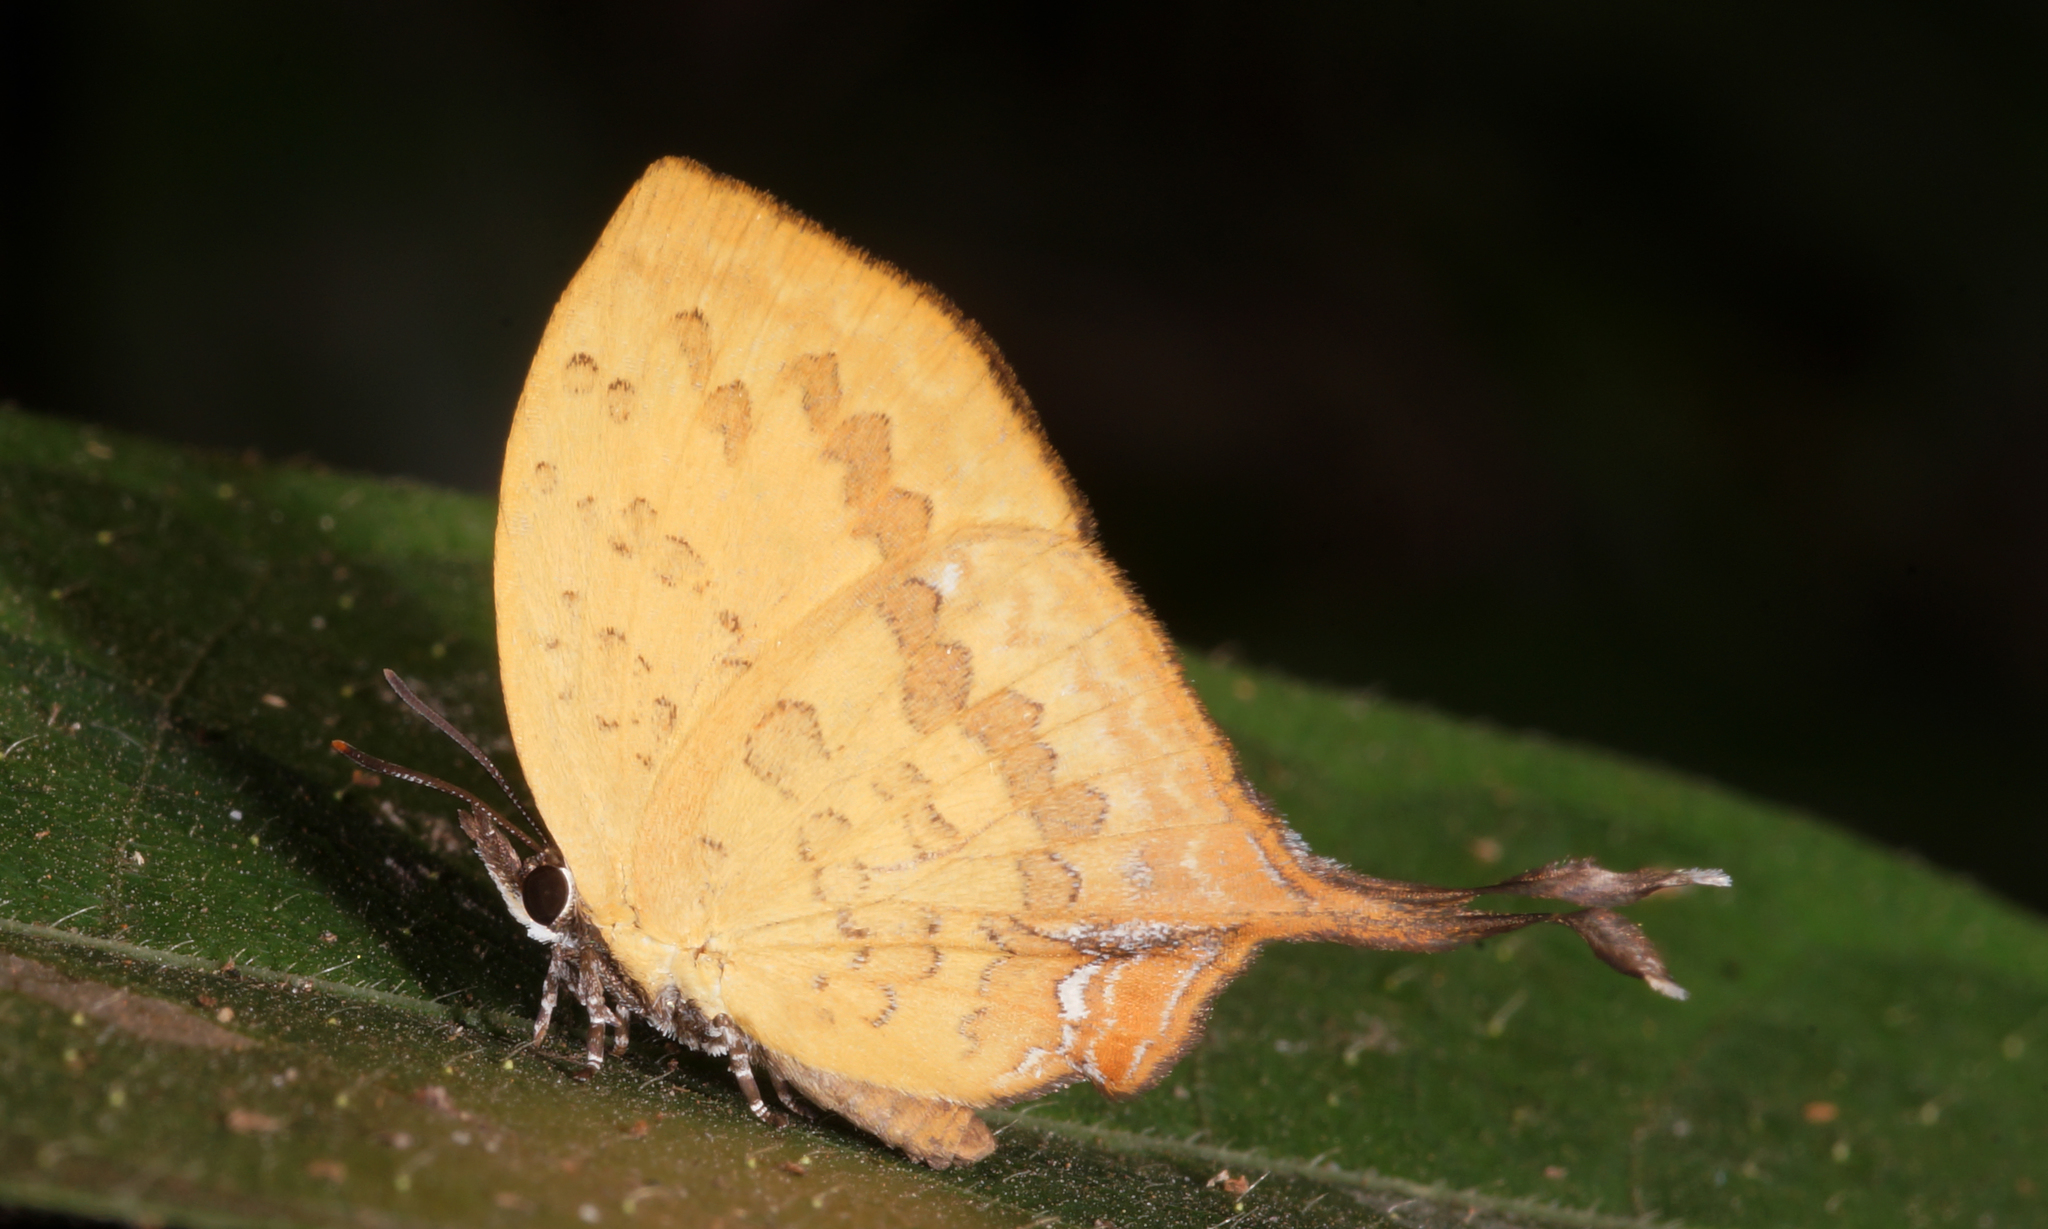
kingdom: Animalia
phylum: Arthropoda
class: Insecta
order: Lepidoptera
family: Lycaenidae
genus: Yasoda
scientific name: Yasoda tripunctata
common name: Branded yamfly
